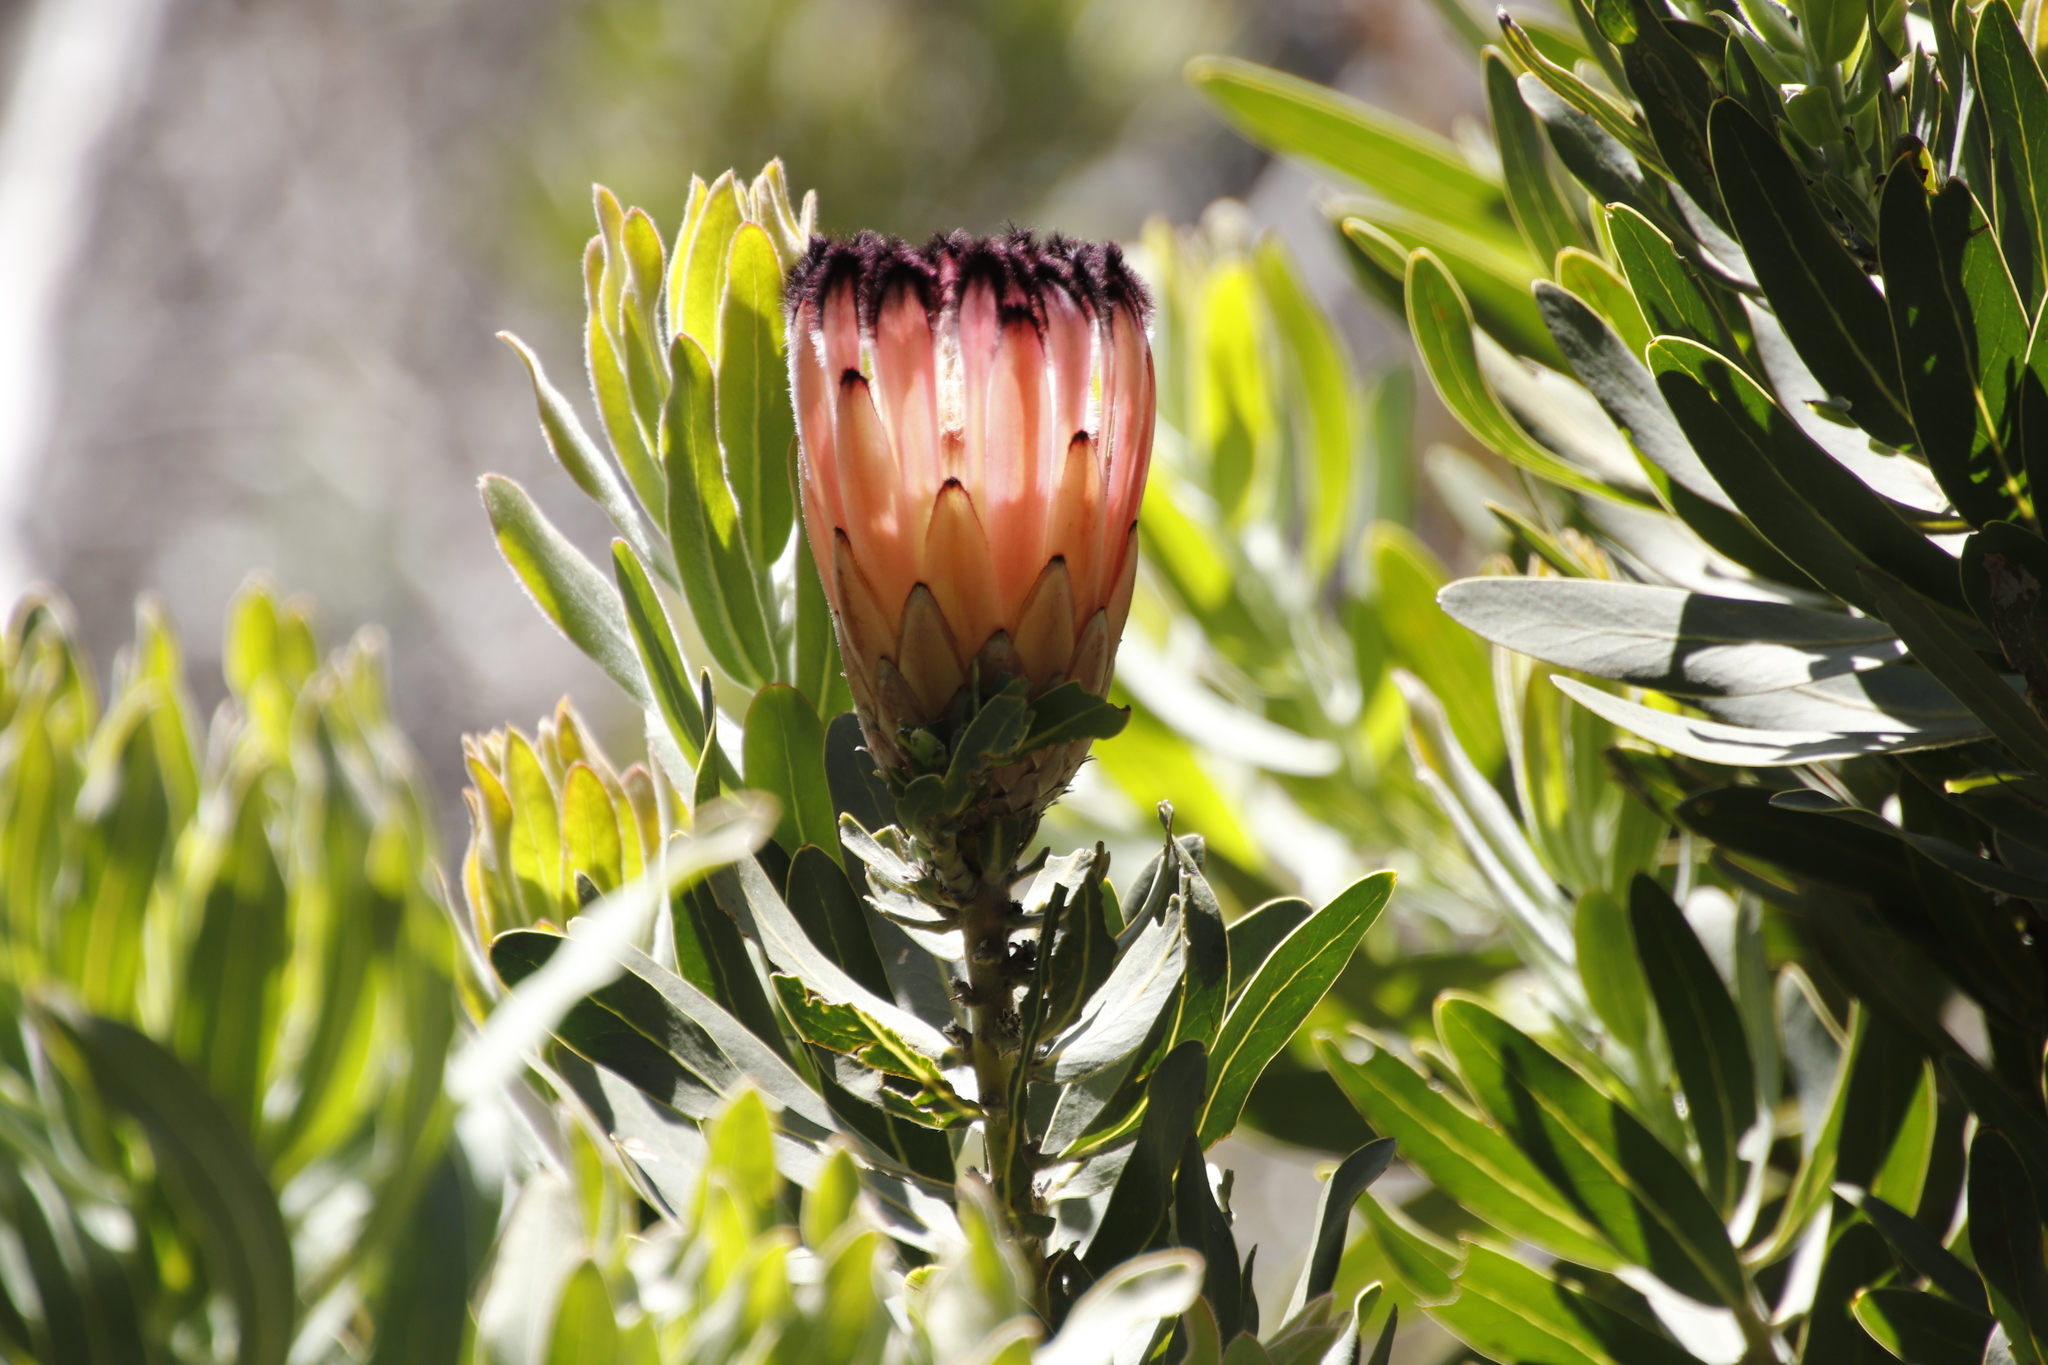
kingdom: Plantae
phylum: Tracheophyta
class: Magnoliopsida
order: Proteales
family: Proteaceae
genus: Protea
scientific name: Protea laurifolia
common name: Grey-leaf sugarbsh
